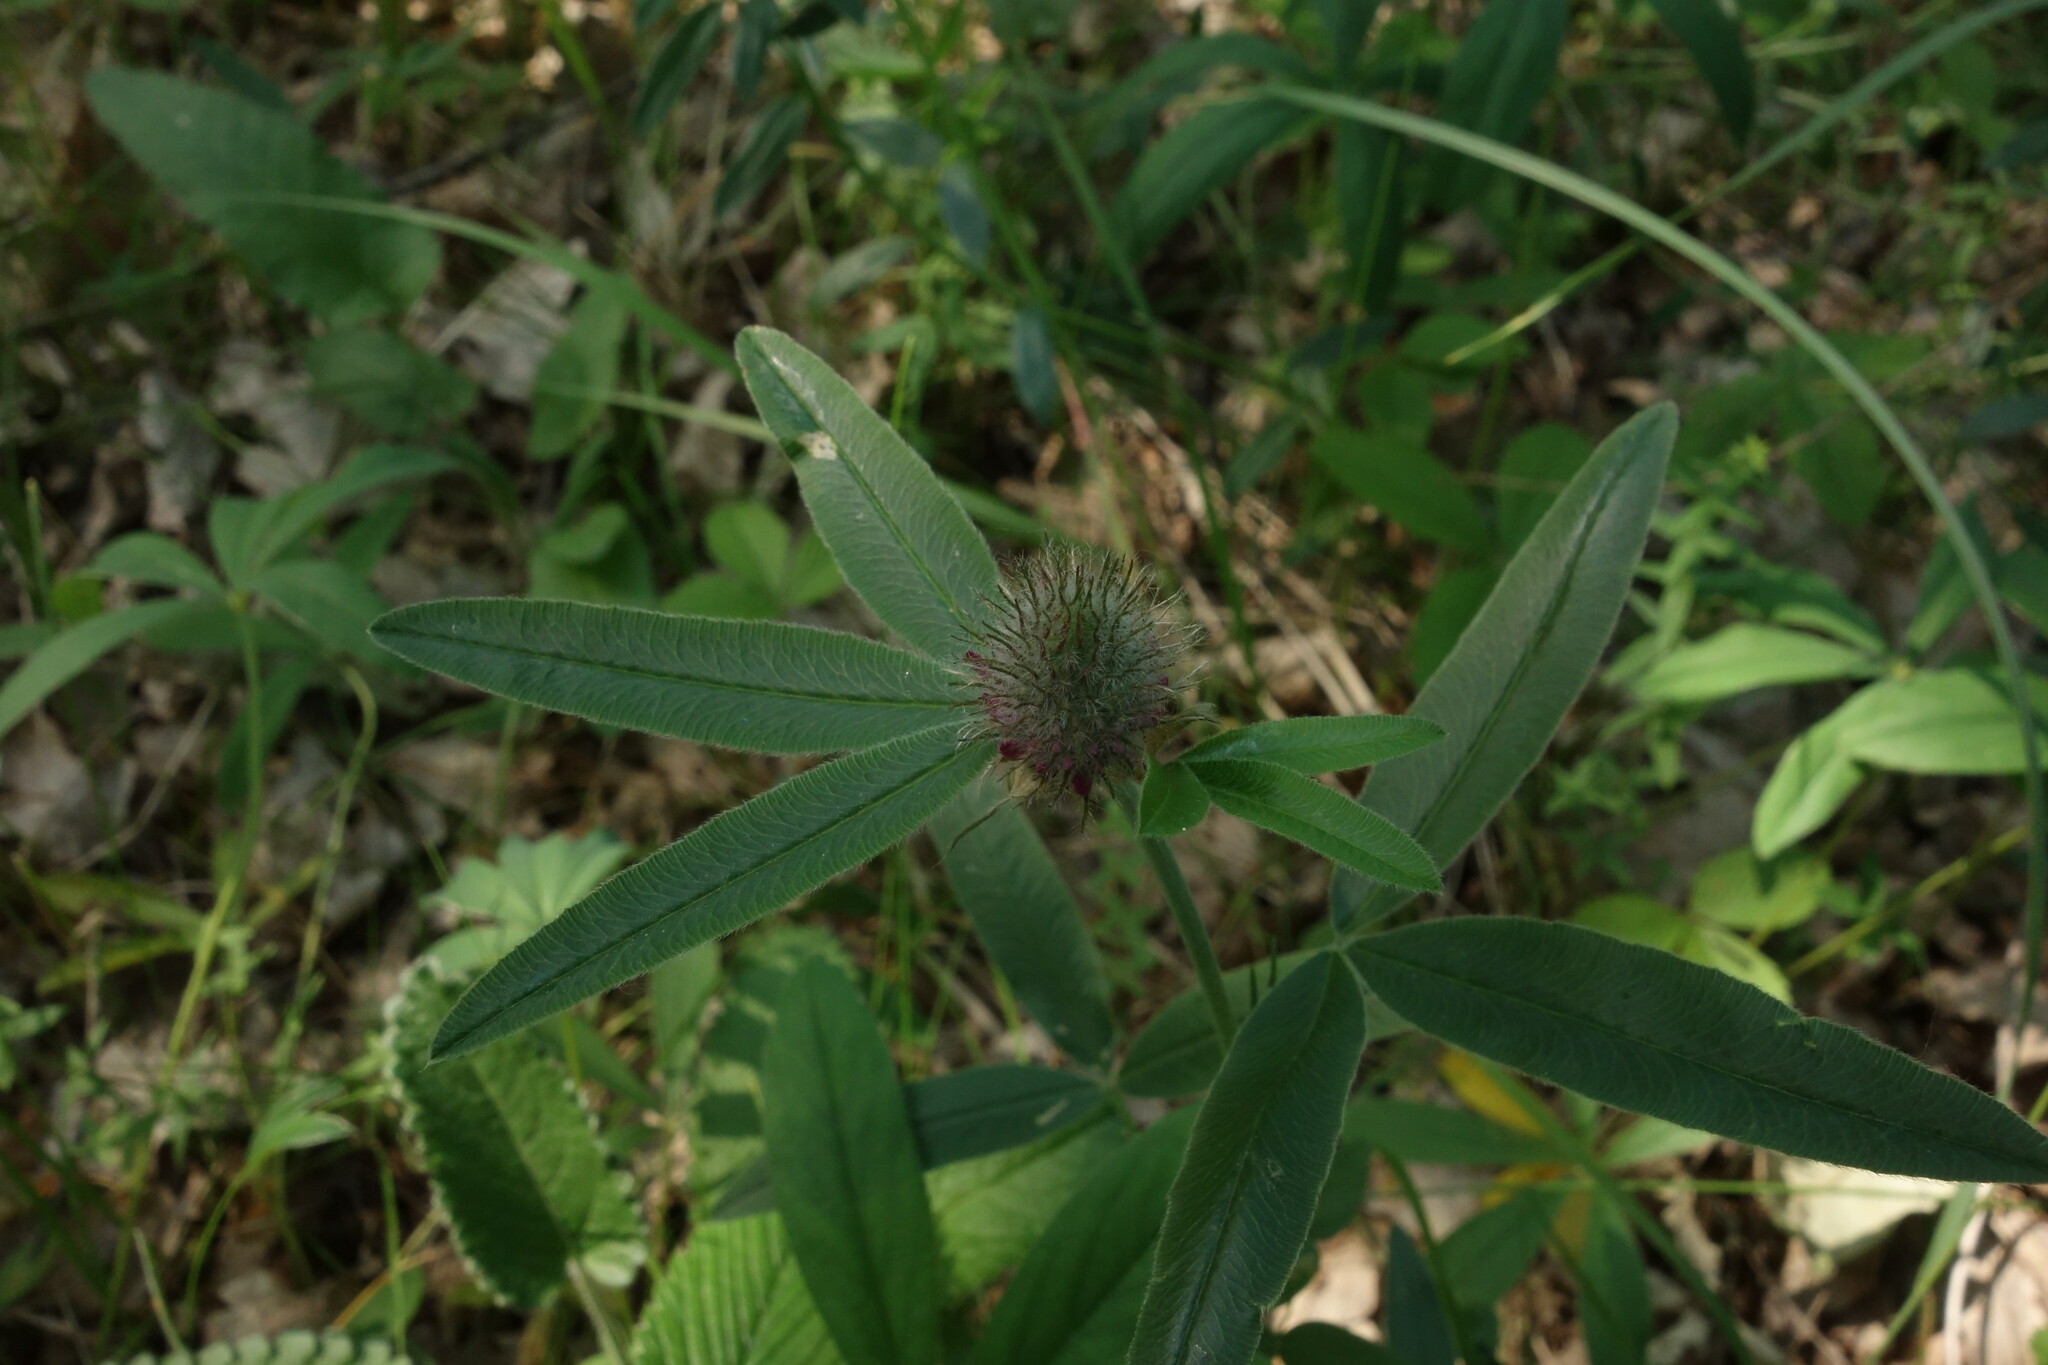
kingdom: Plantae
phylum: Tracheophyta
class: Magnoliopsida
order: Fabales
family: Fabaceae
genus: Trifolium
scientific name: Trifolium alpestre
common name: Owl-head clover
